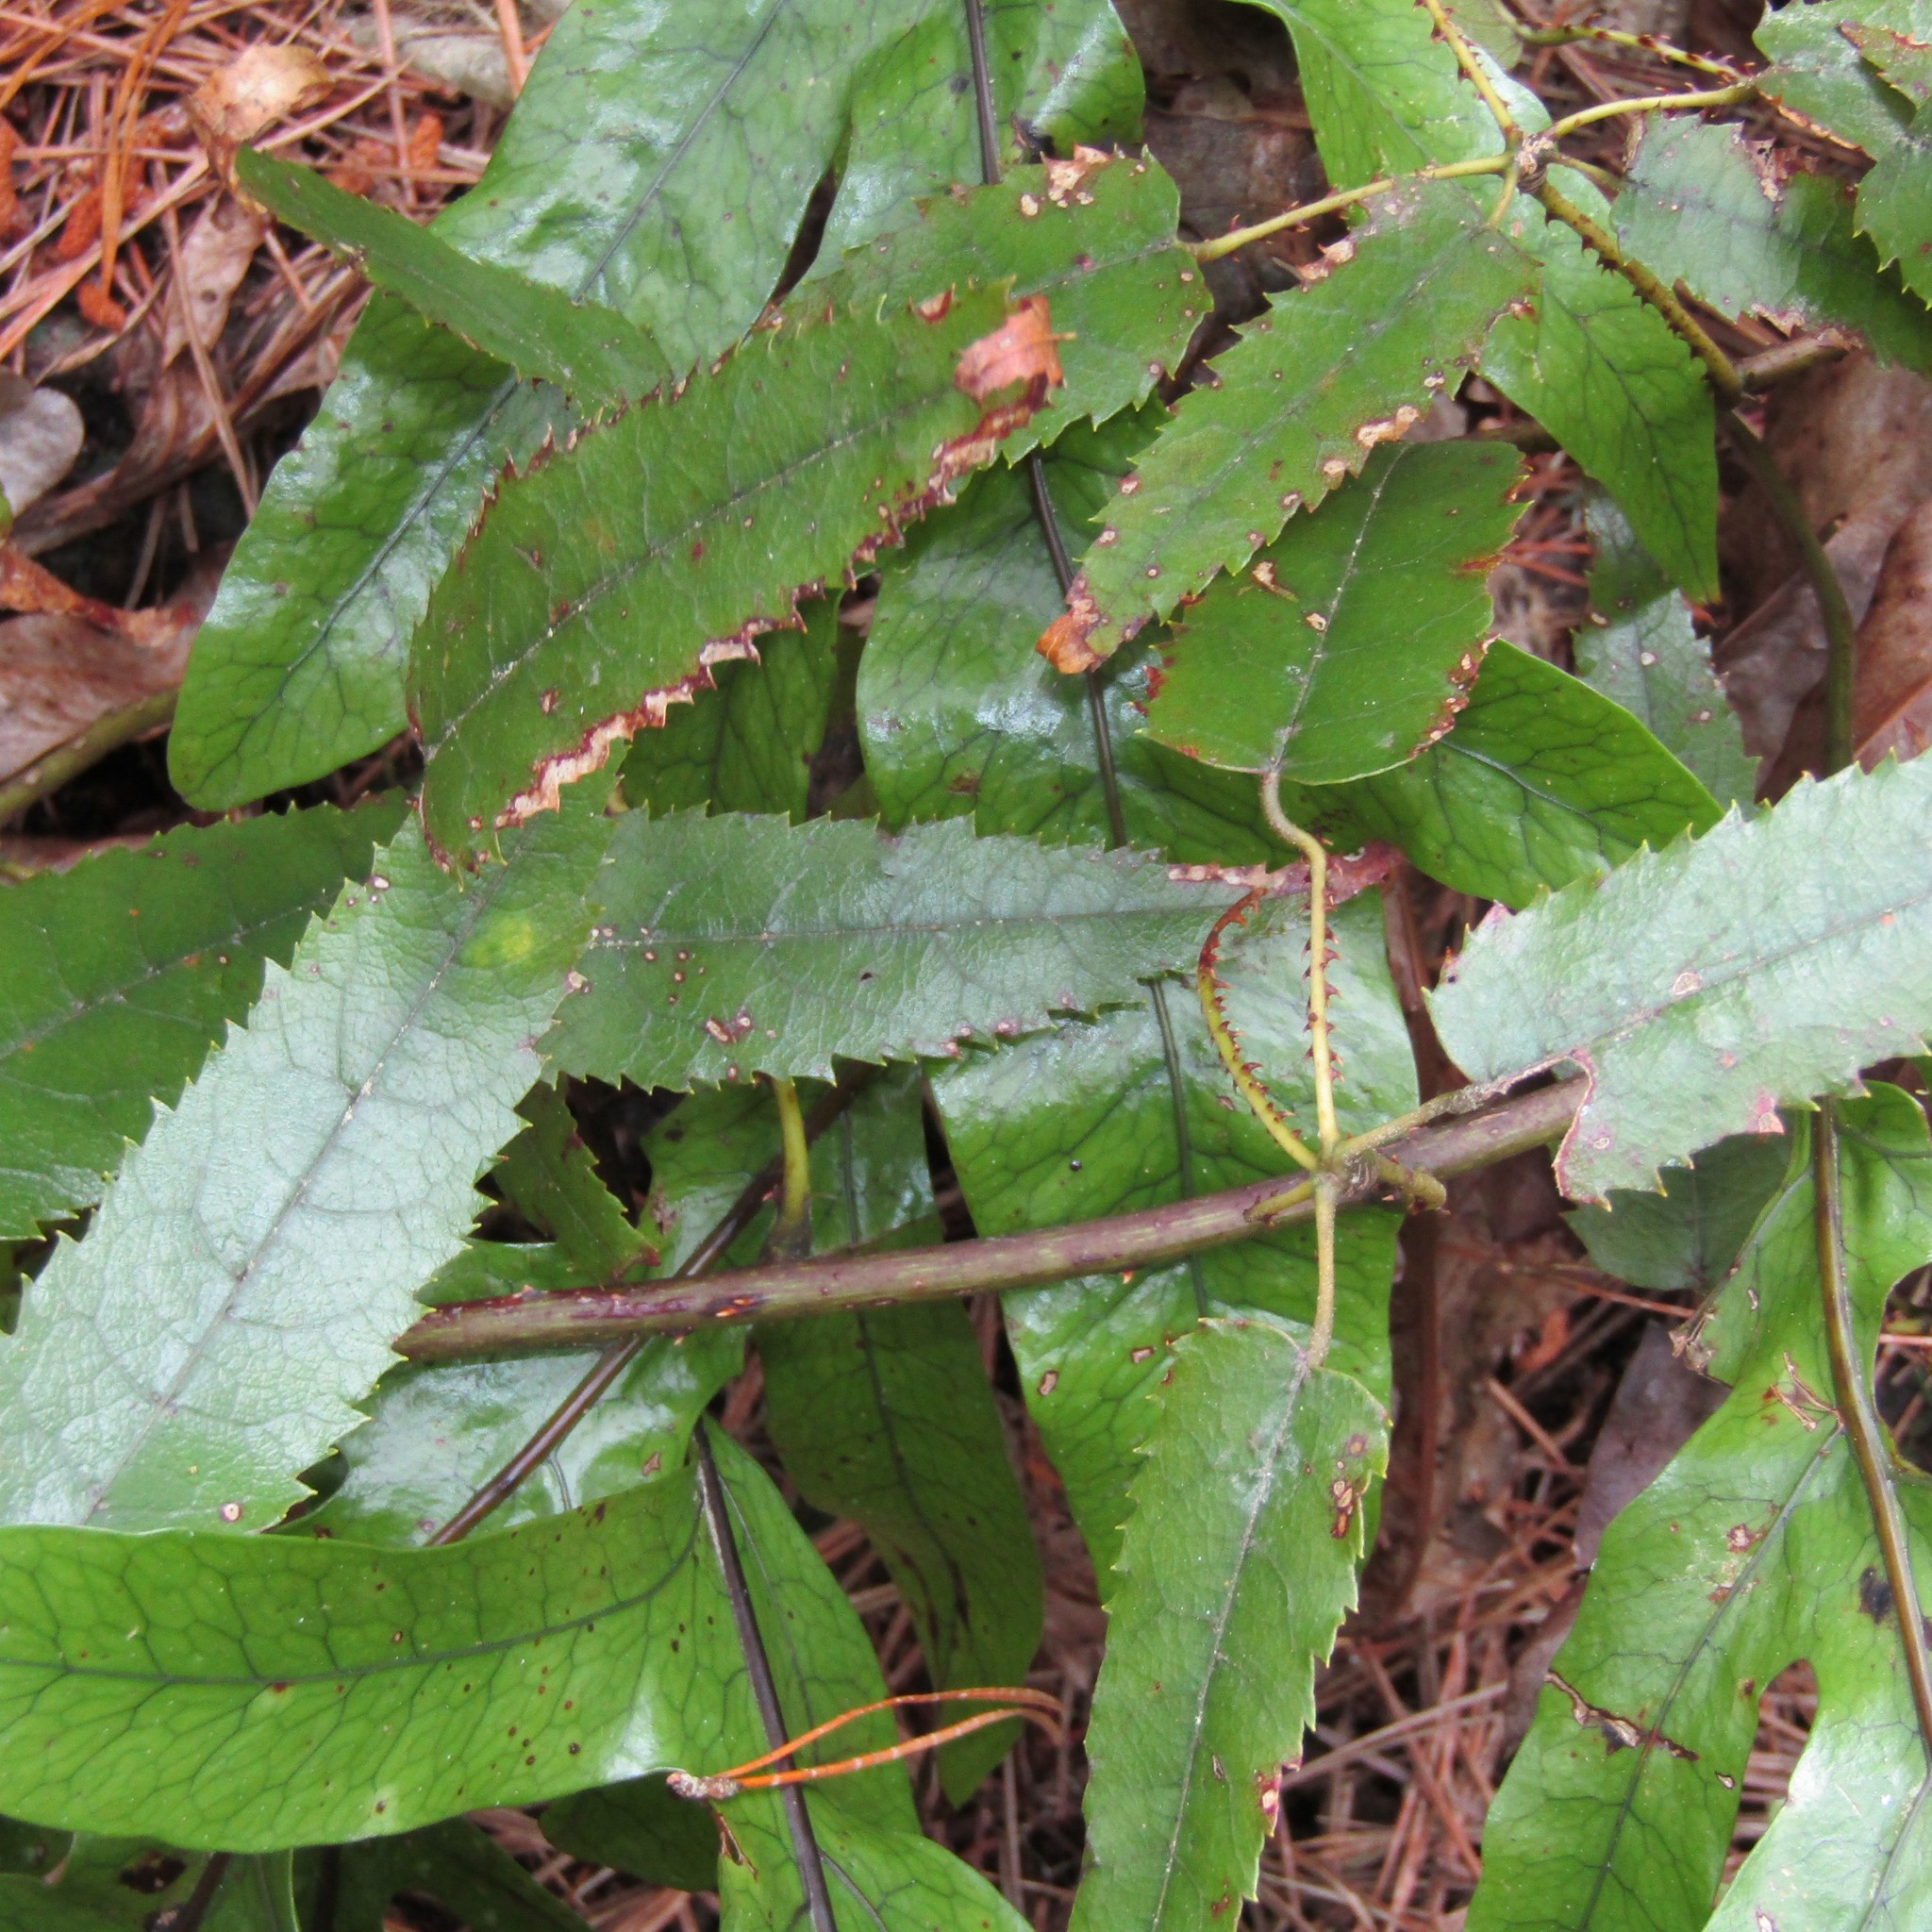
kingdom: Plantae
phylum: Tracheophyta
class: Magnoliopsida
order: Rosales
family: Rosaceae
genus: Rubus
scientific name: Rubus cissoides
